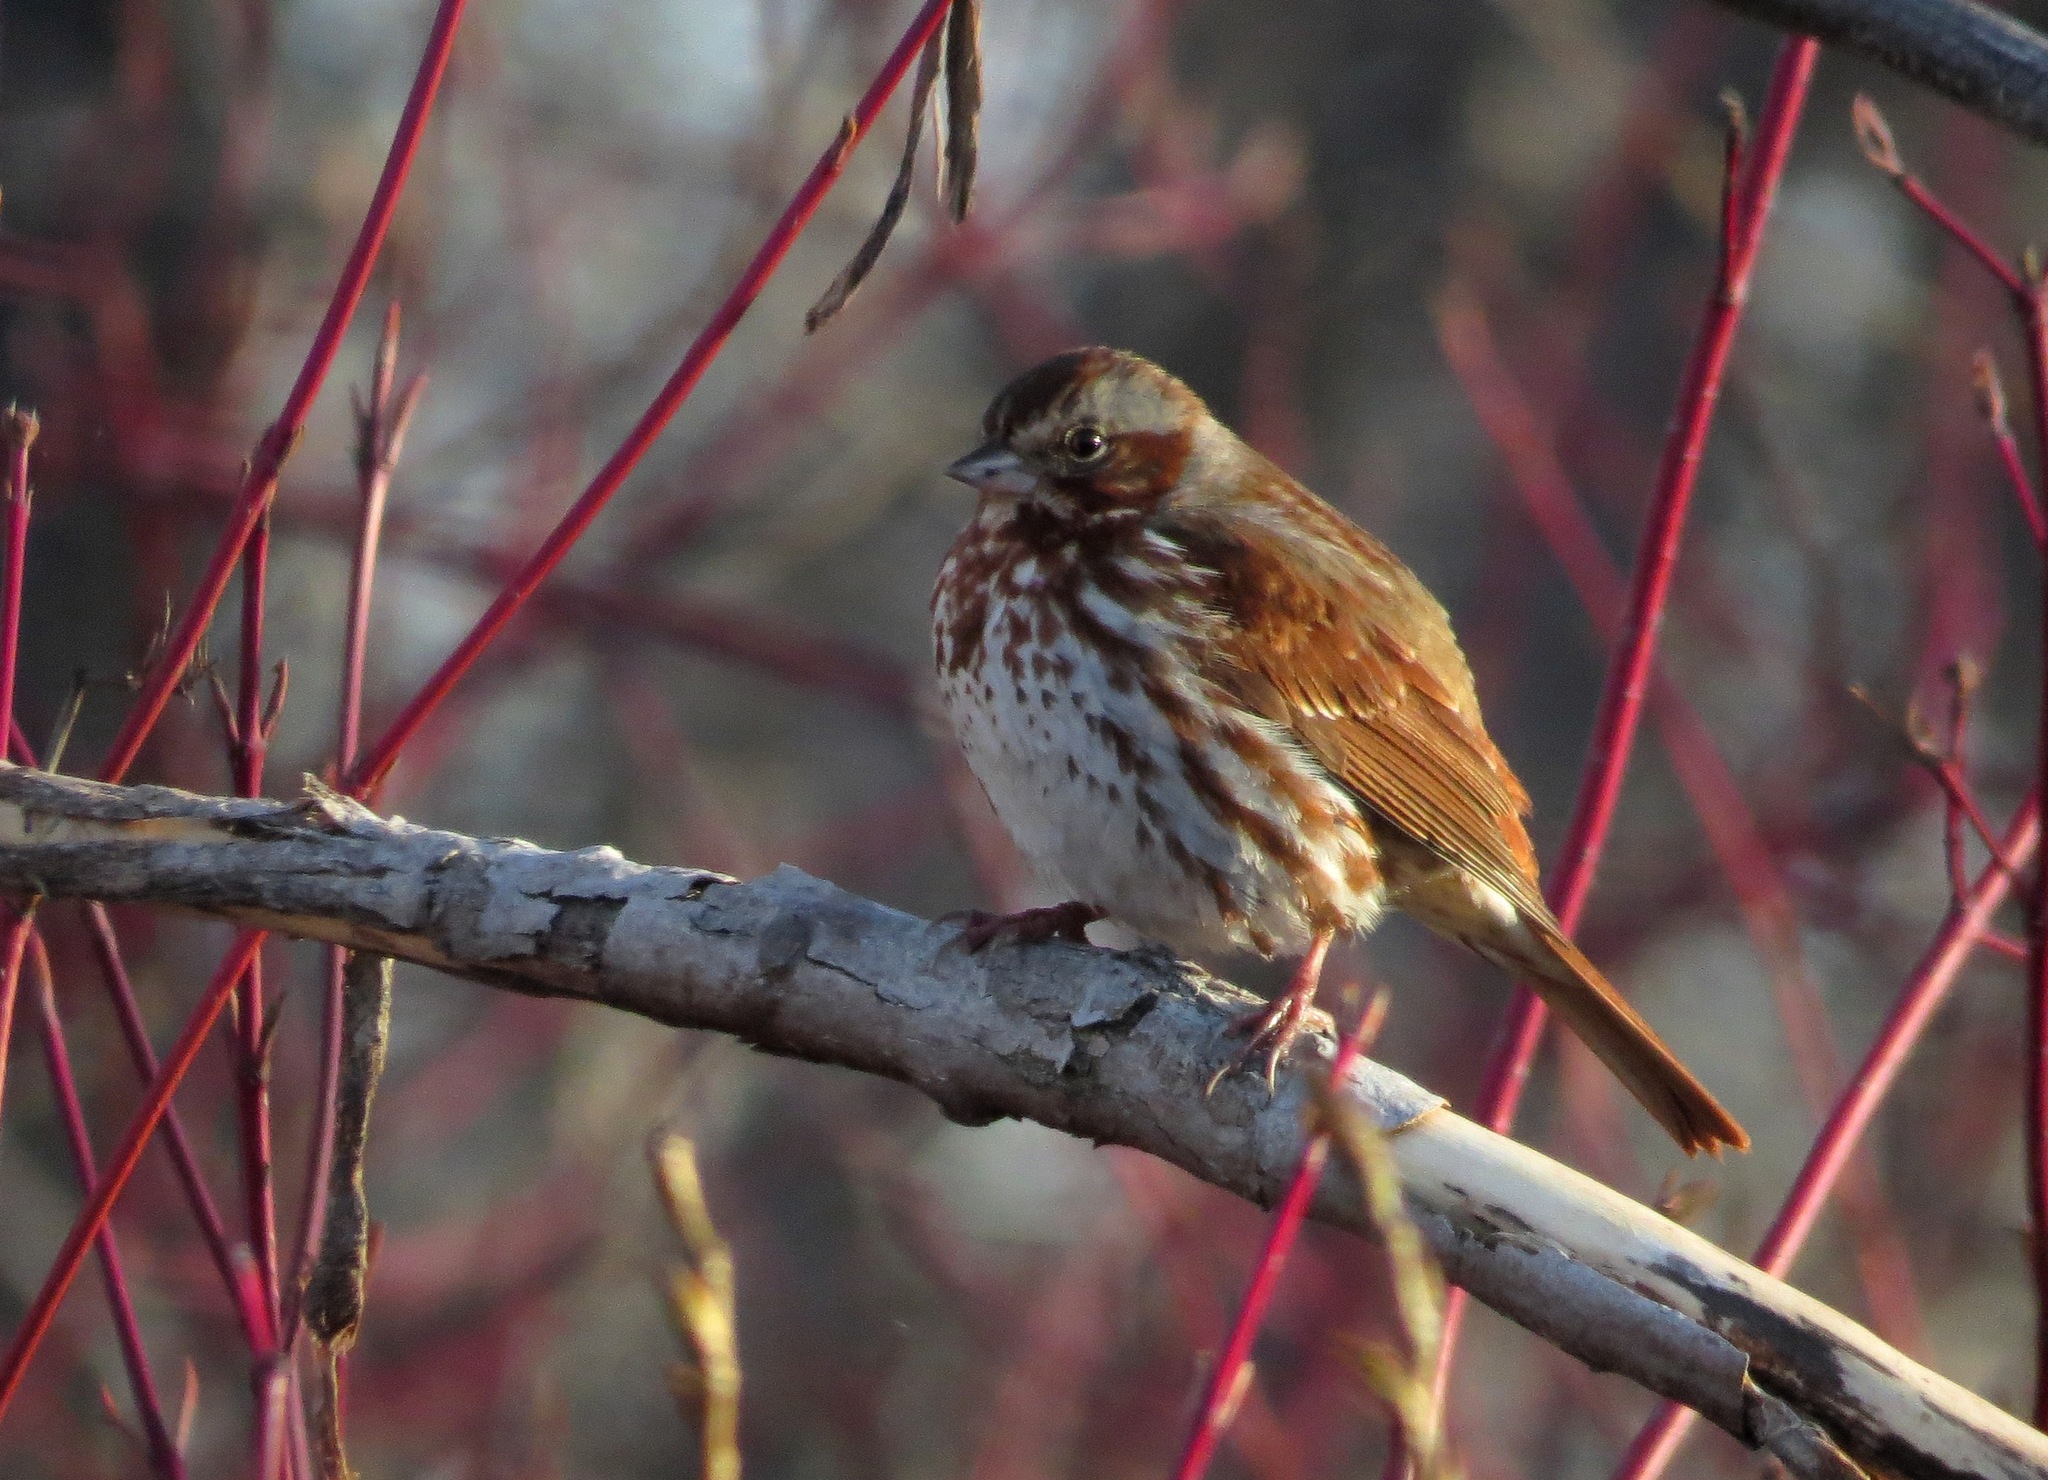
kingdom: Animalia
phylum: Chordata
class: Aves
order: Passeriformes
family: Passerellidae
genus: Passerella
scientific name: Passerella iliaca
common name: Fox sparrow
